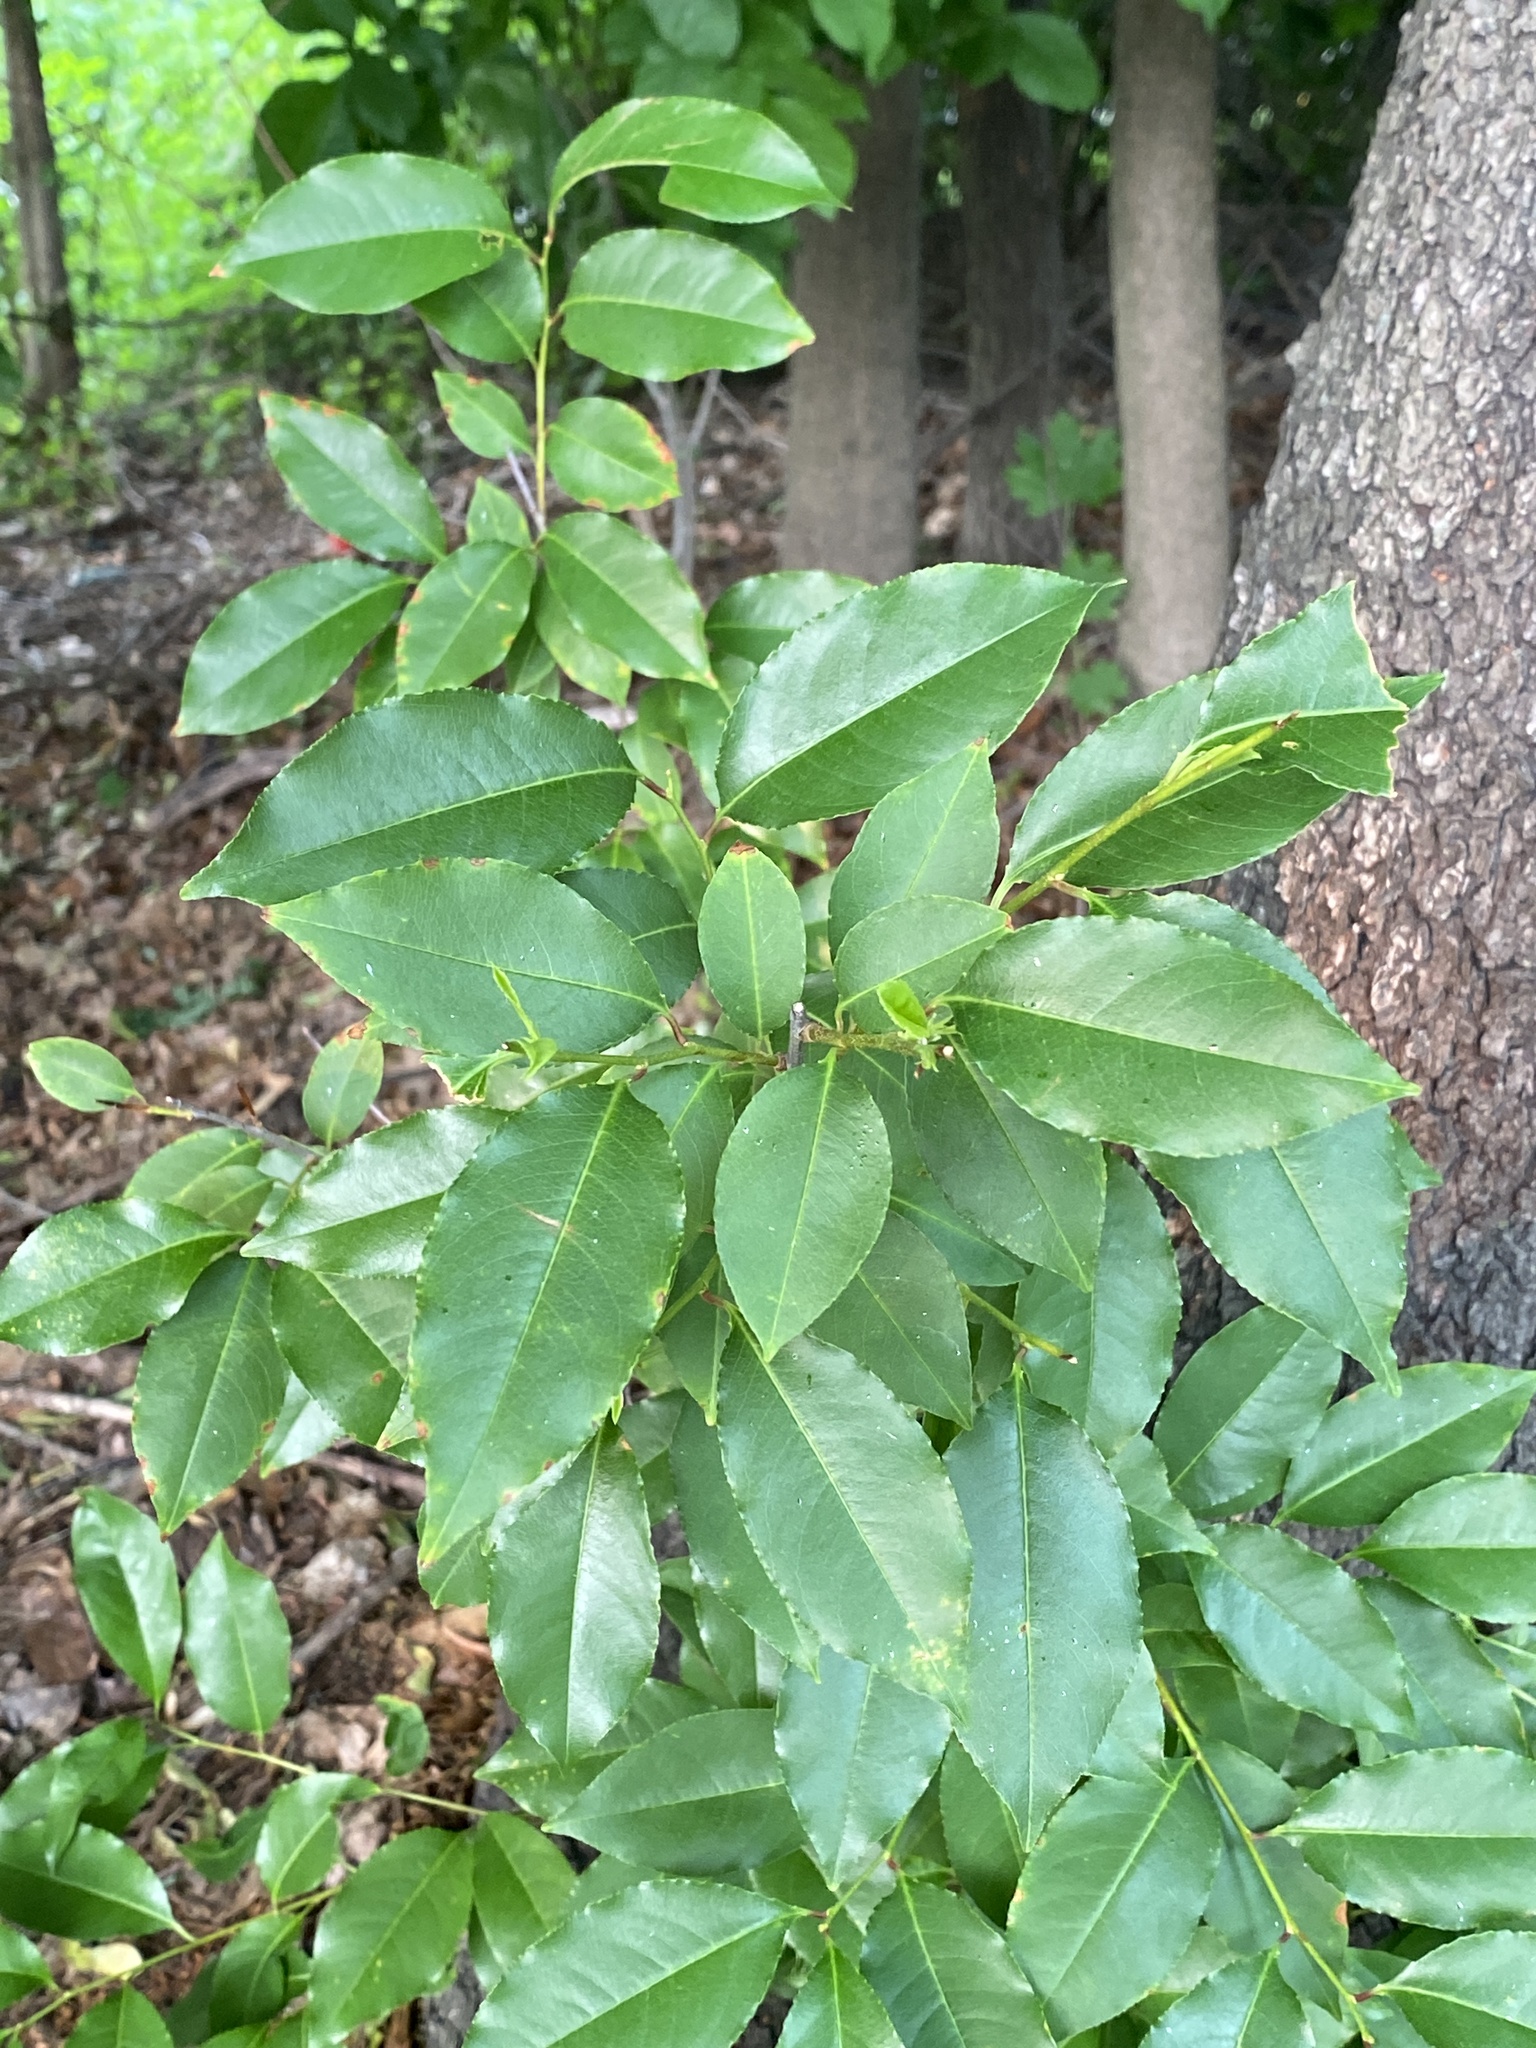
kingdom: Plantae
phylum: Tracheophyta
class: Magnoliopsida
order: Rosales
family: Rosaceae
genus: Prunus
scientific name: Prunus serotina
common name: Black cherry
